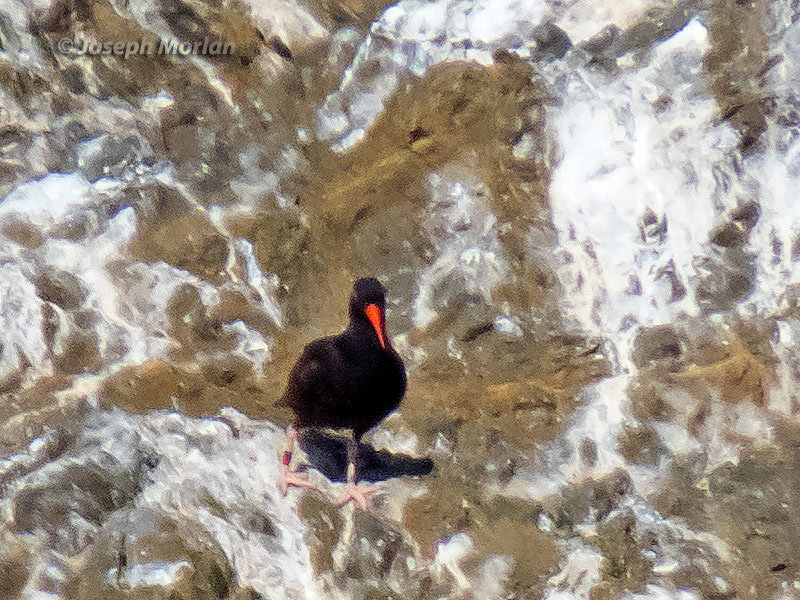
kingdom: Animalia
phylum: Chordata
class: Aves
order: Charadriiformes
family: Haematopodidae
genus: Haematopus
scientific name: Haematopus bachmani
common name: Black oystercatcher
